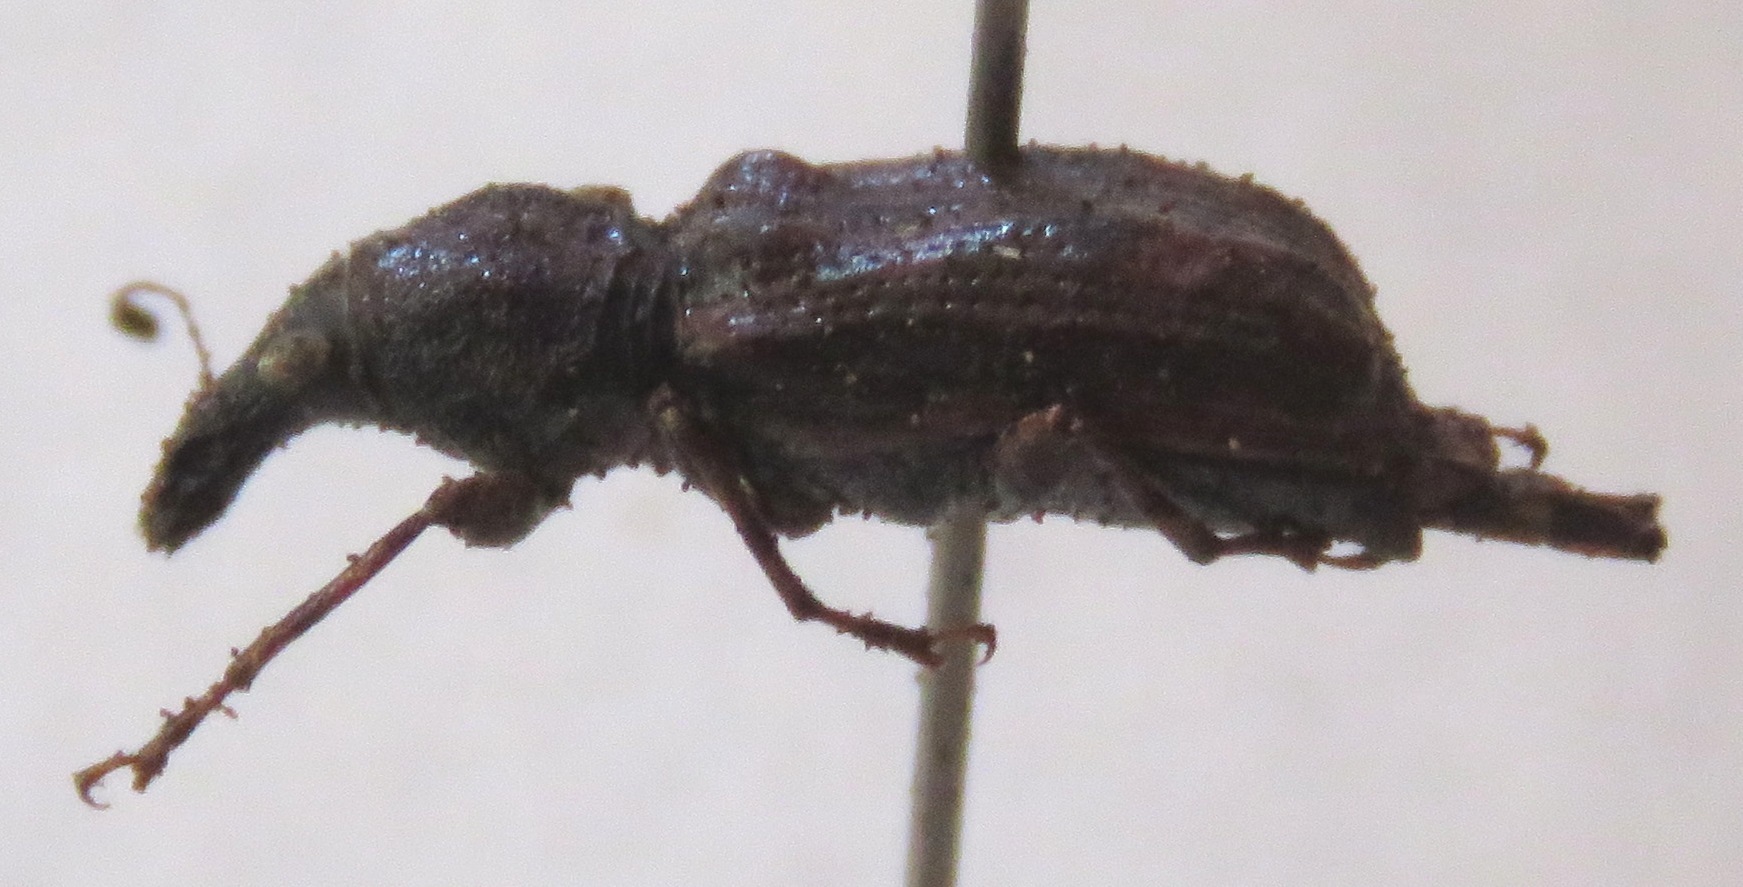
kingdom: Animalia
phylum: Arthropoda
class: Insecta
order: Coleoptera
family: Anthribidae
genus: Meconemus
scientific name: Meconemus infuscatus
